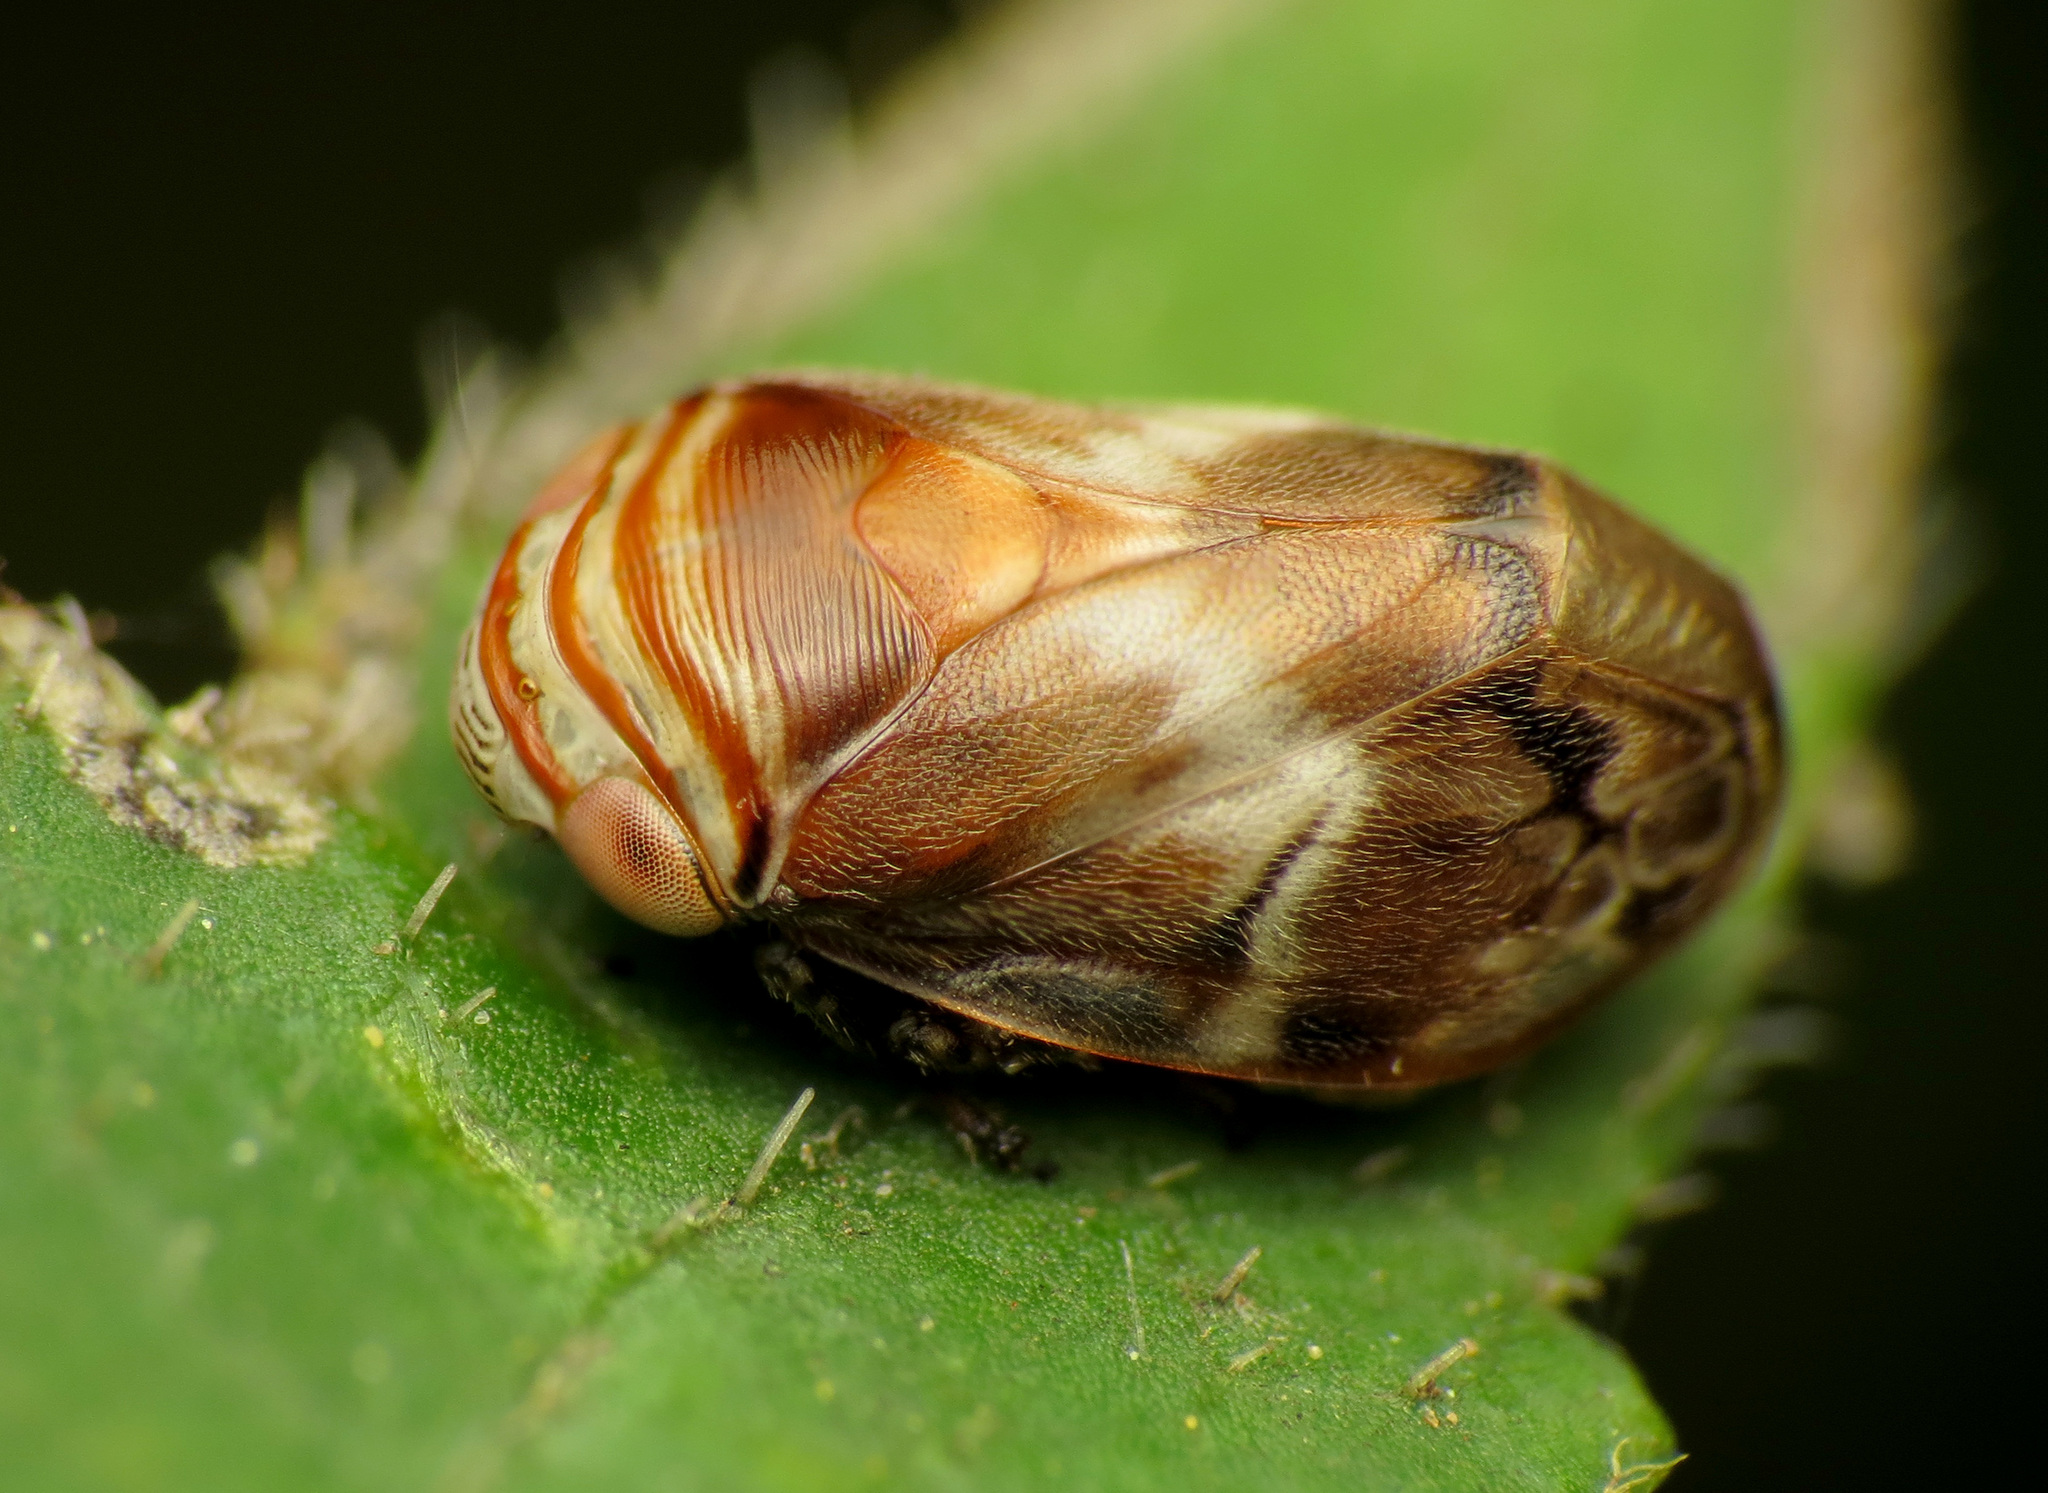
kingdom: Animalia
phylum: Arthropoda
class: Insecta
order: Hemiptera
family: Clastopteridae
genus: Clastoptera
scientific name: Clastoptera obtusa
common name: Alder spittlebug
